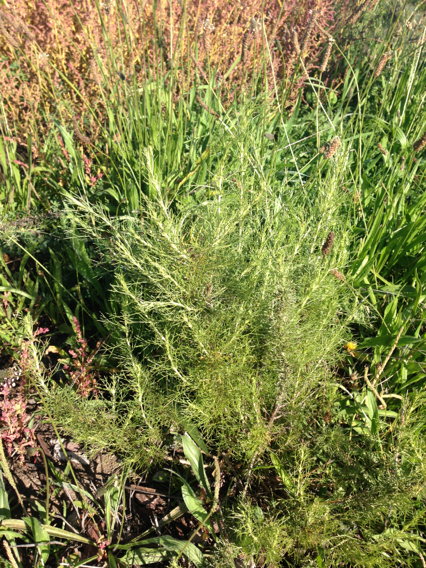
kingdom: Plantae
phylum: Tracheophyta
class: Magnoliopsida
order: Asterales
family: Asteraceae
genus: Artemisia
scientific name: Artemisia californica
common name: California sagebrush
